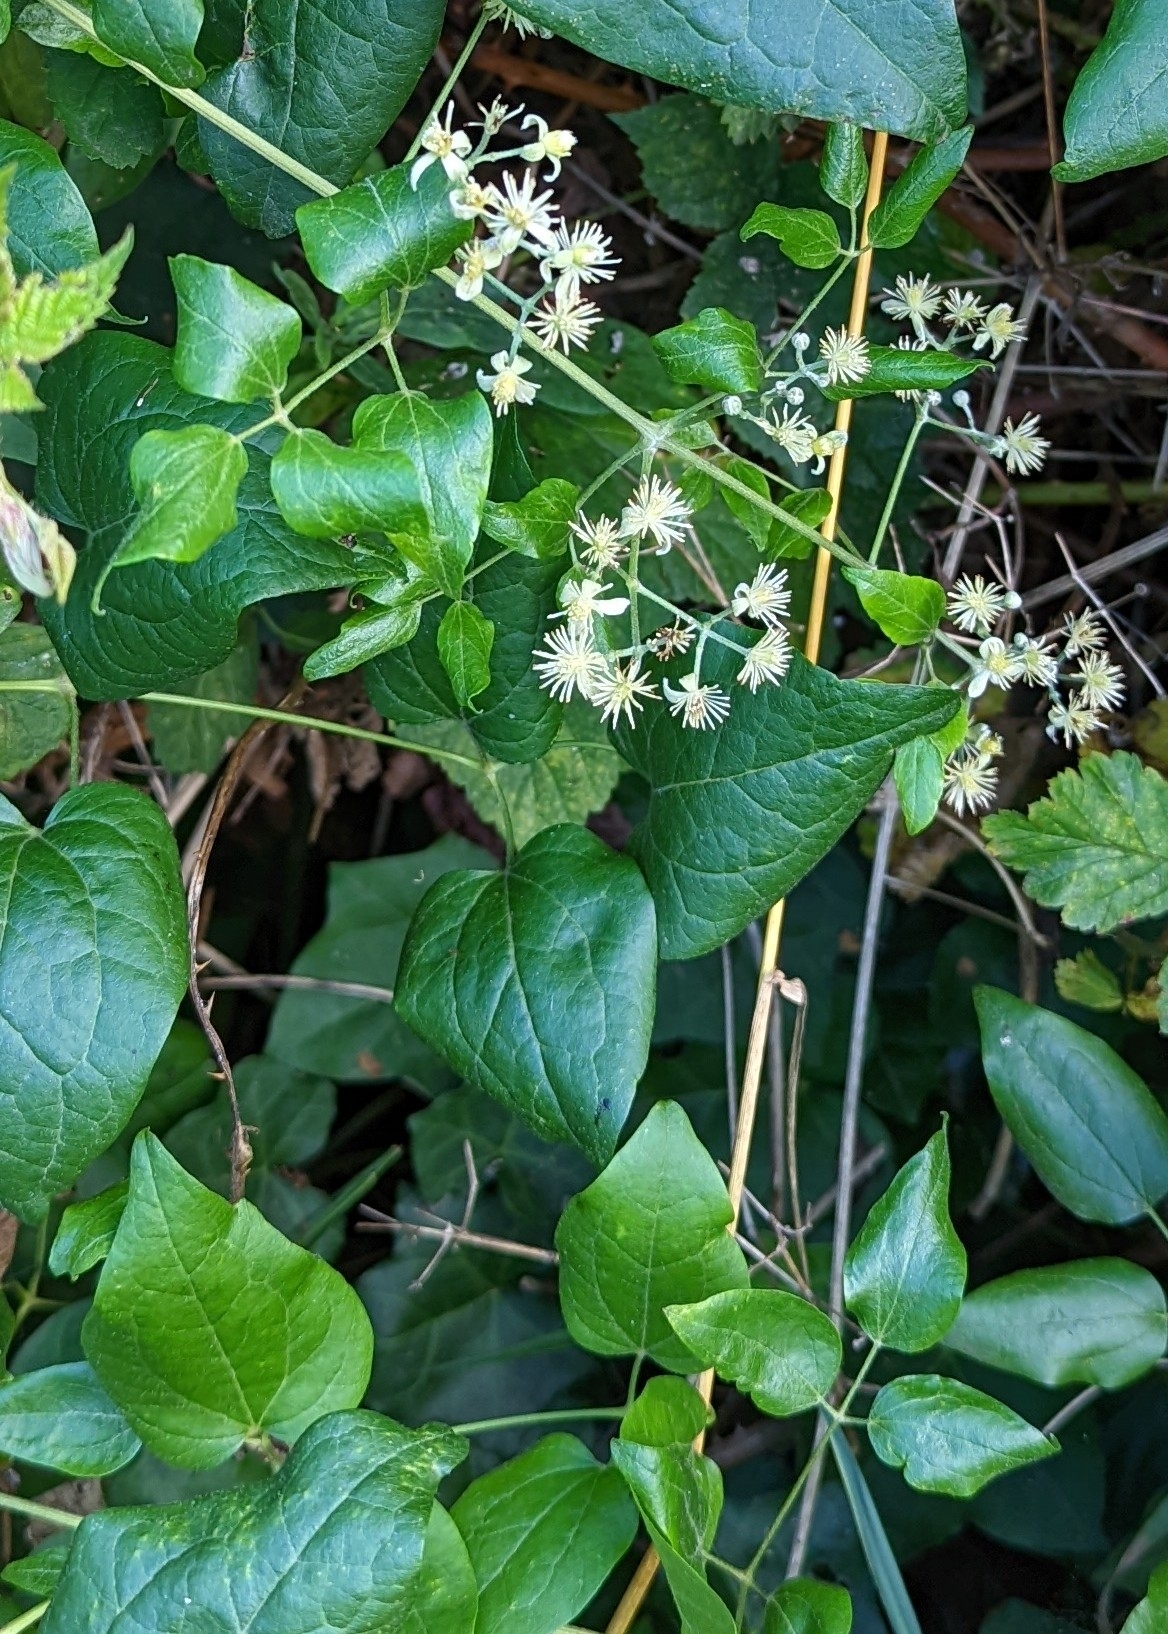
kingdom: Plantae
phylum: Tracheophyta
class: Magnoliopsida
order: Ranunculales
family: Ranunculaceae
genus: Clematis
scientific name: Clematis vitalba
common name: Evergreen clematis
